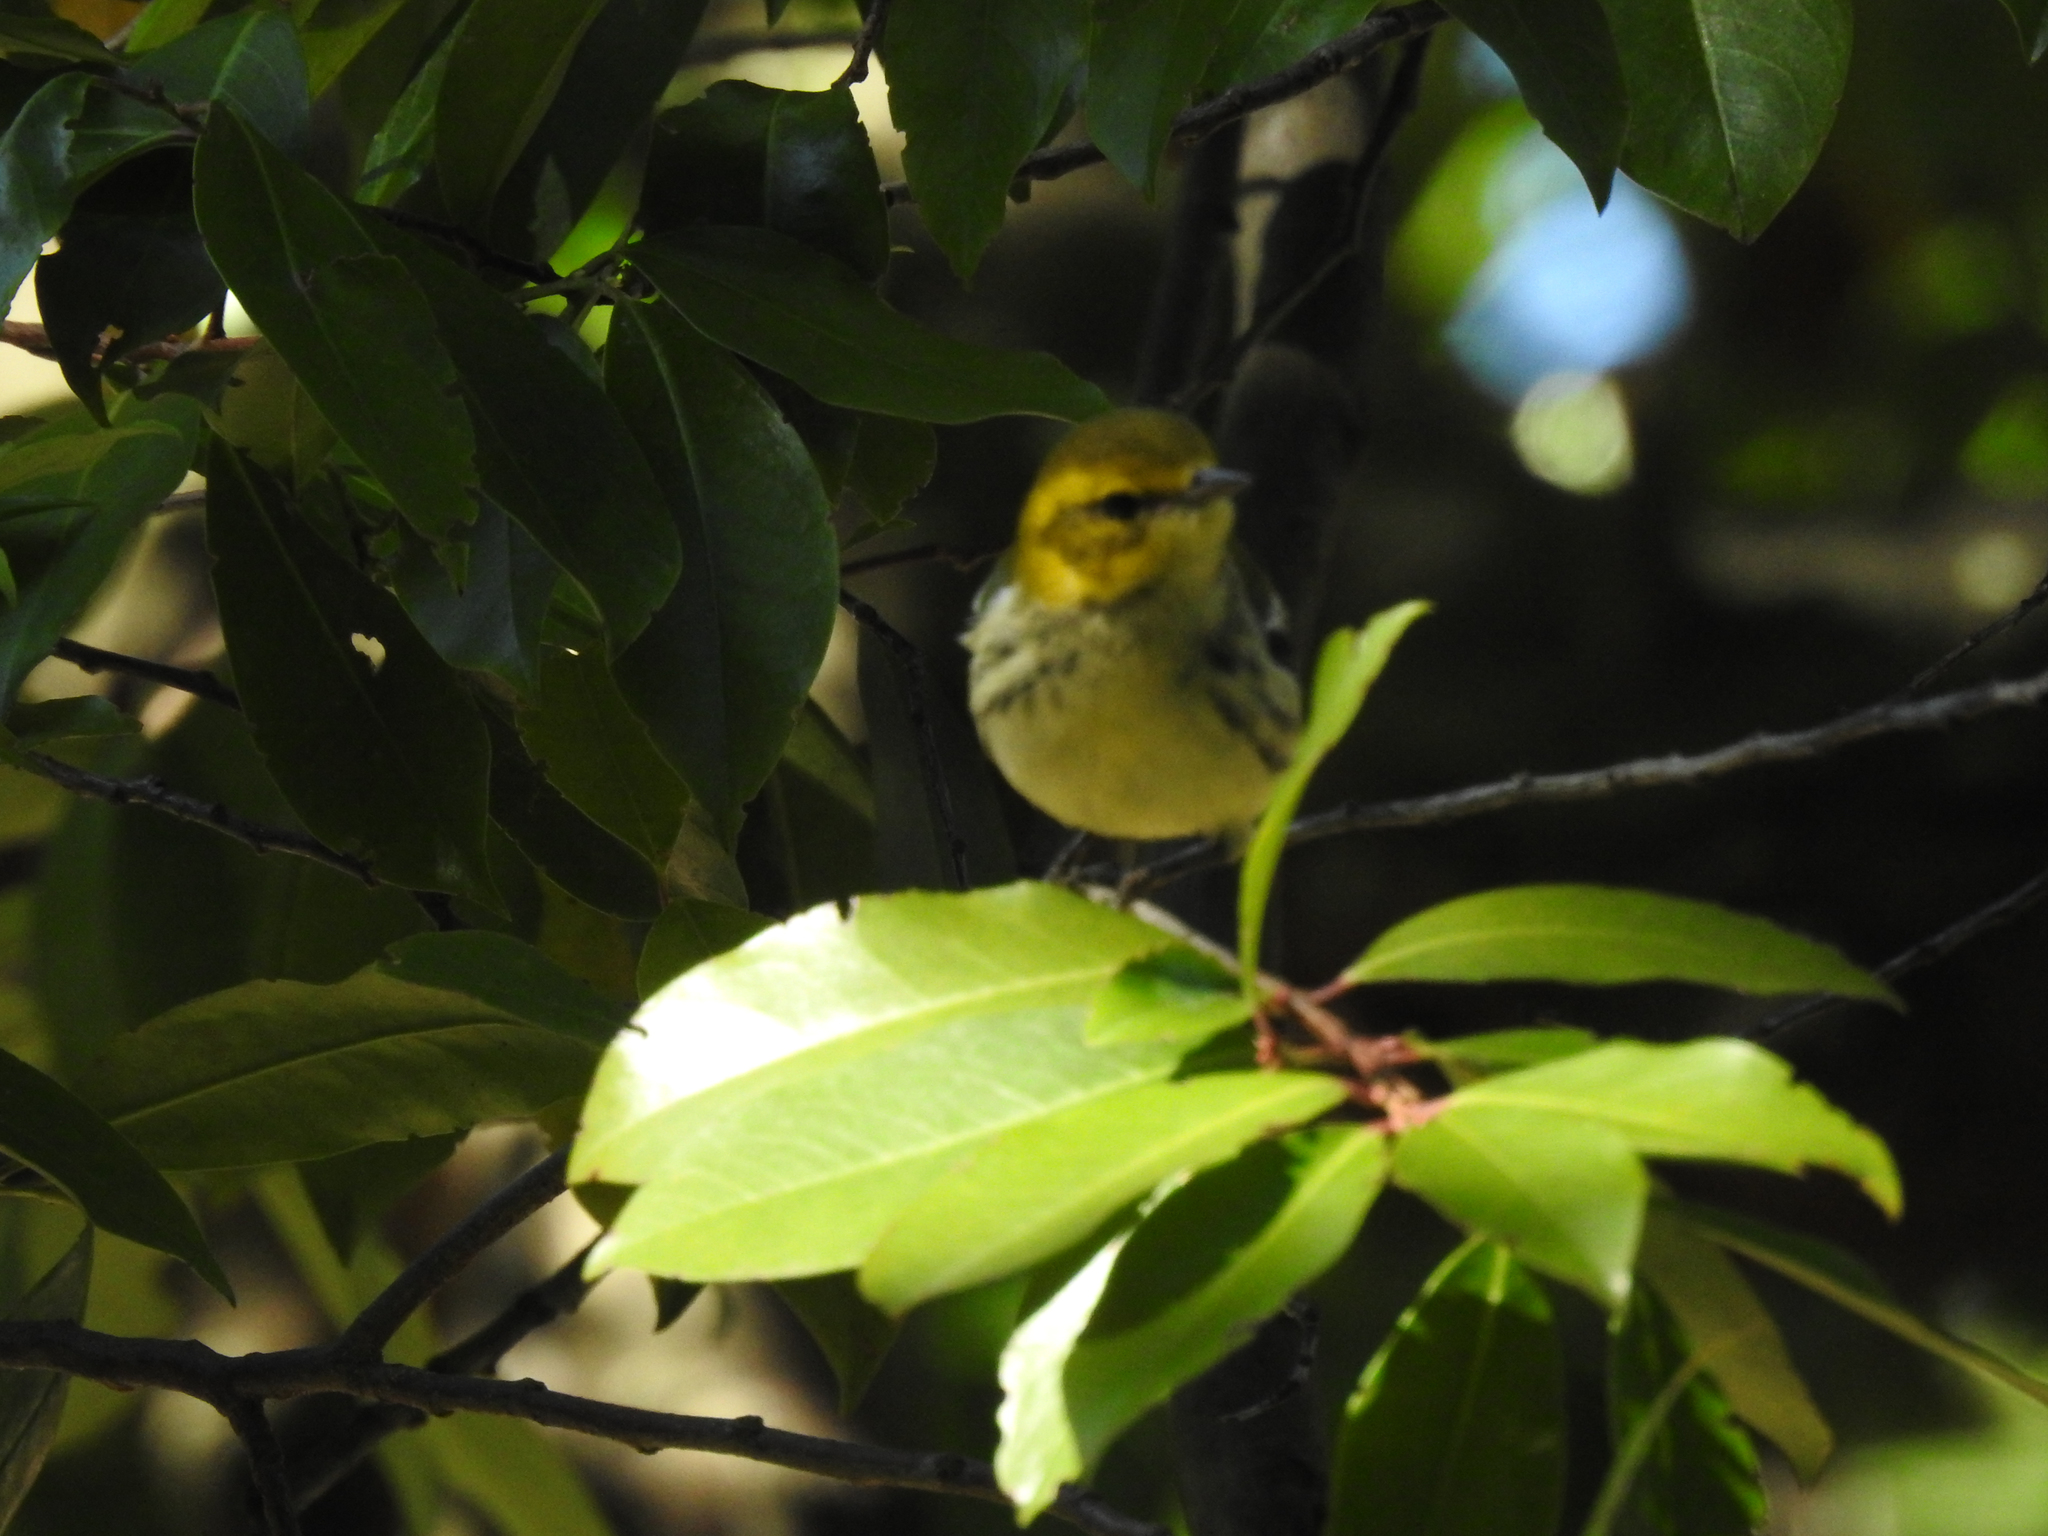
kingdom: Animalia
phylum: Chordata
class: Aves
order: Passeriformes
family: Parulidae
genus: Setophaga
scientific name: Setophaga virens
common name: Black-throated green warbler
